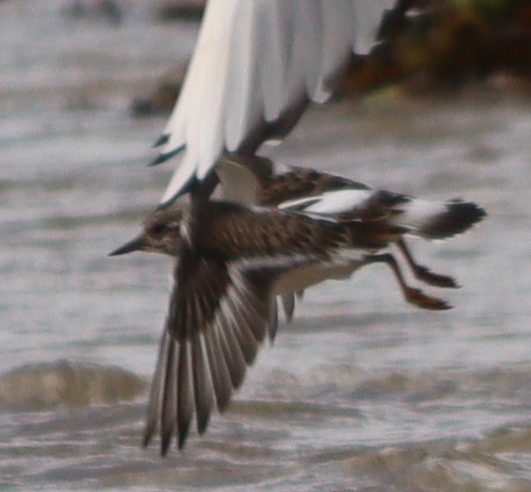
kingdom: Animalia
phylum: Chordata
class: Aves
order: Charadriiformes
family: Scolopacidae
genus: Arenaria
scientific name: Arenaria interpres
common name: Ruddy turnstone
